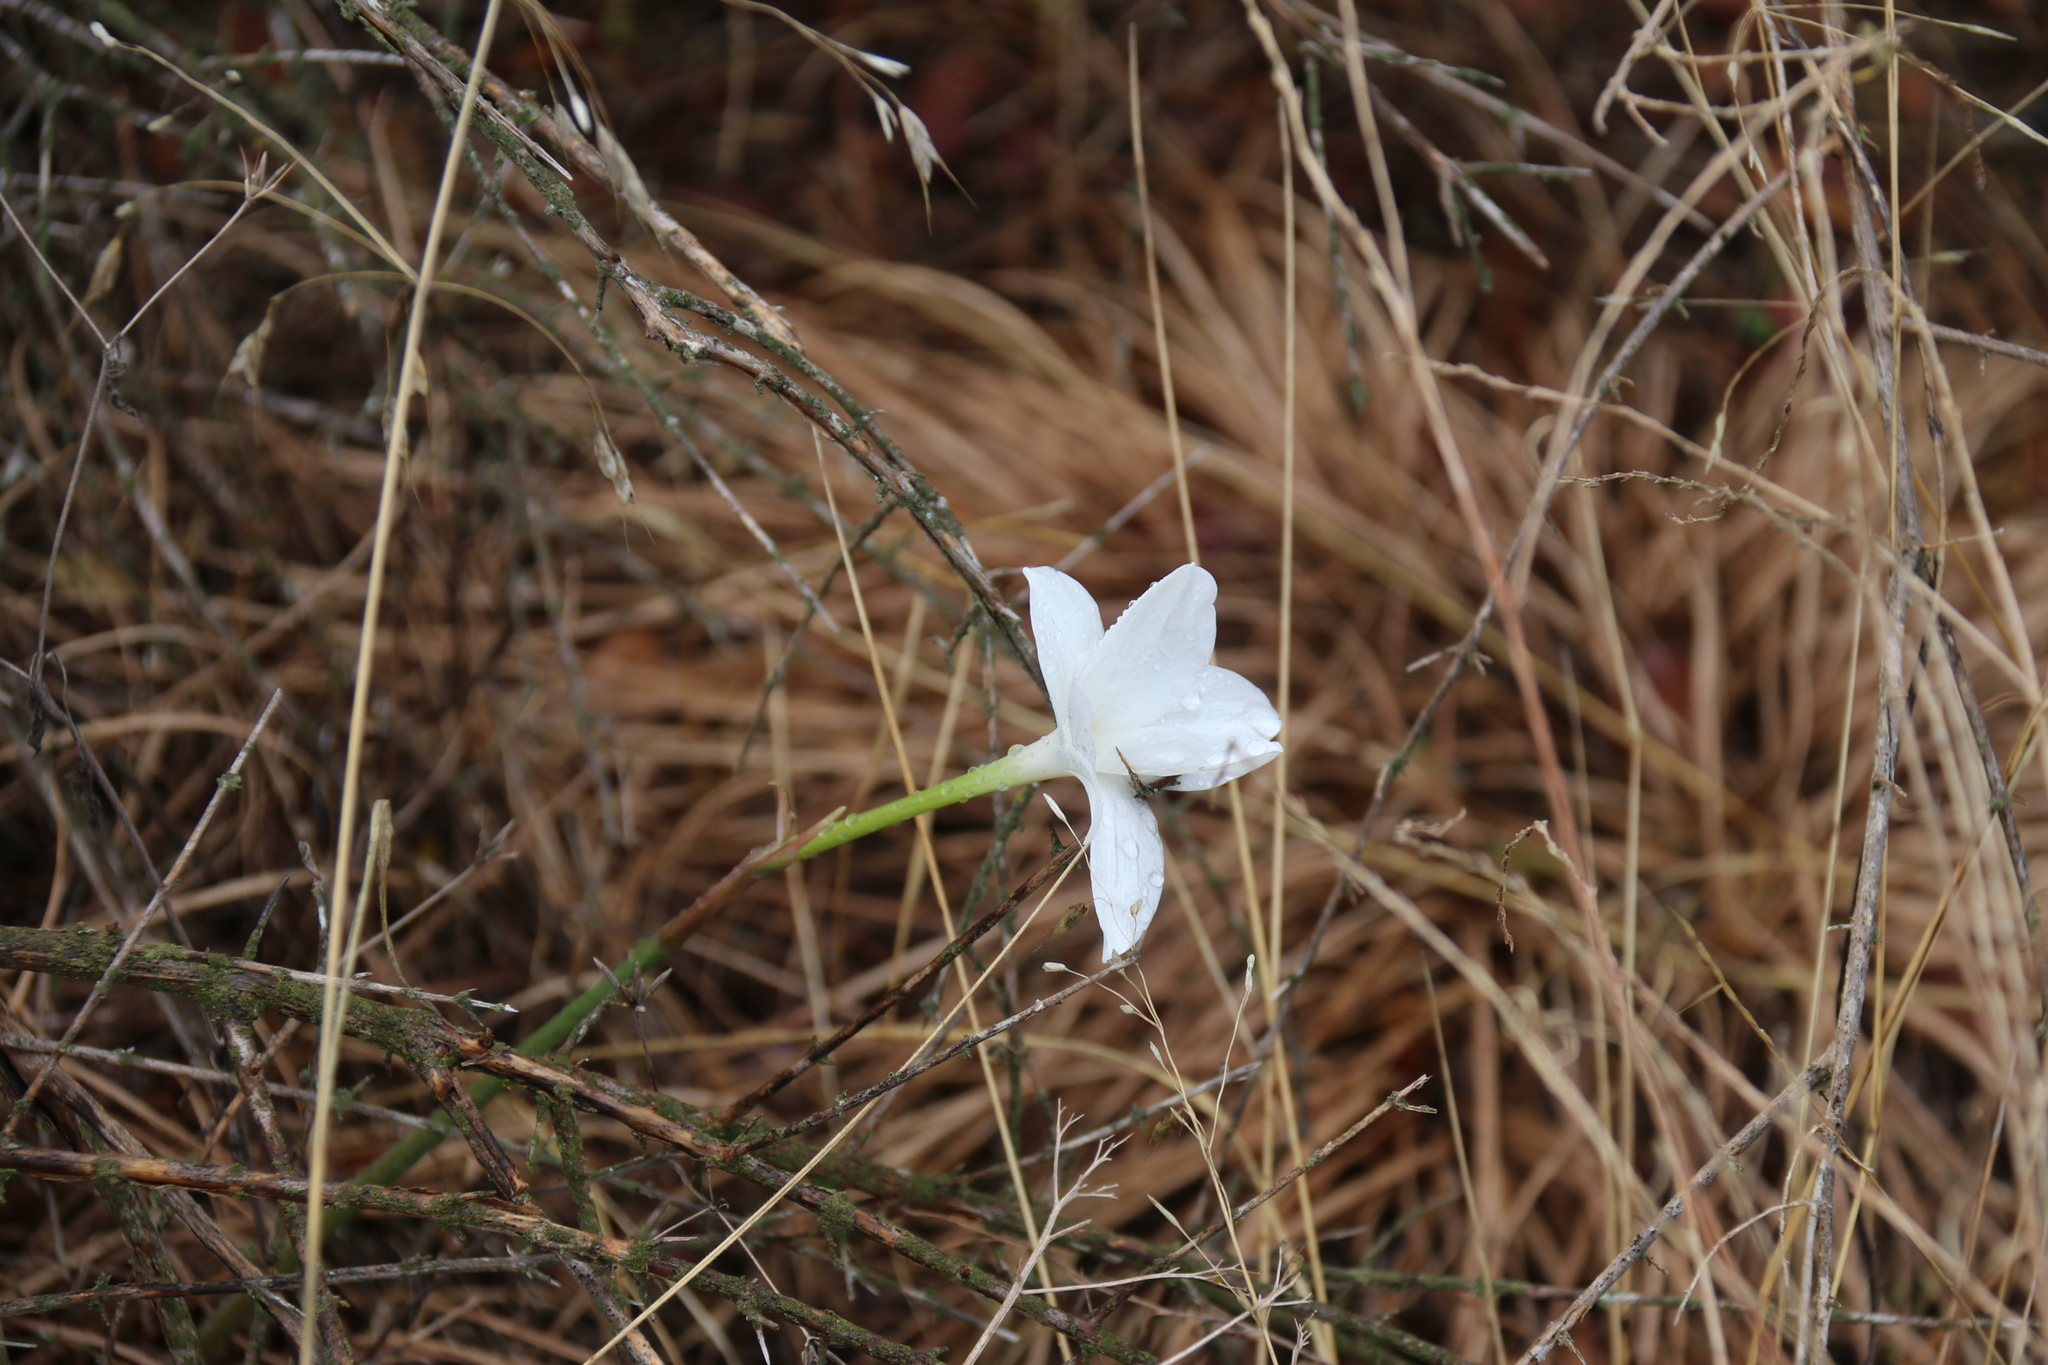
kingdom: Plantae
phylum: Tracheophyta
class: Liliopsida
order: Asparagales
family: Amaryllidaceae
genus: Zephyranthes
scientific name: Zephyranthes drummondii
